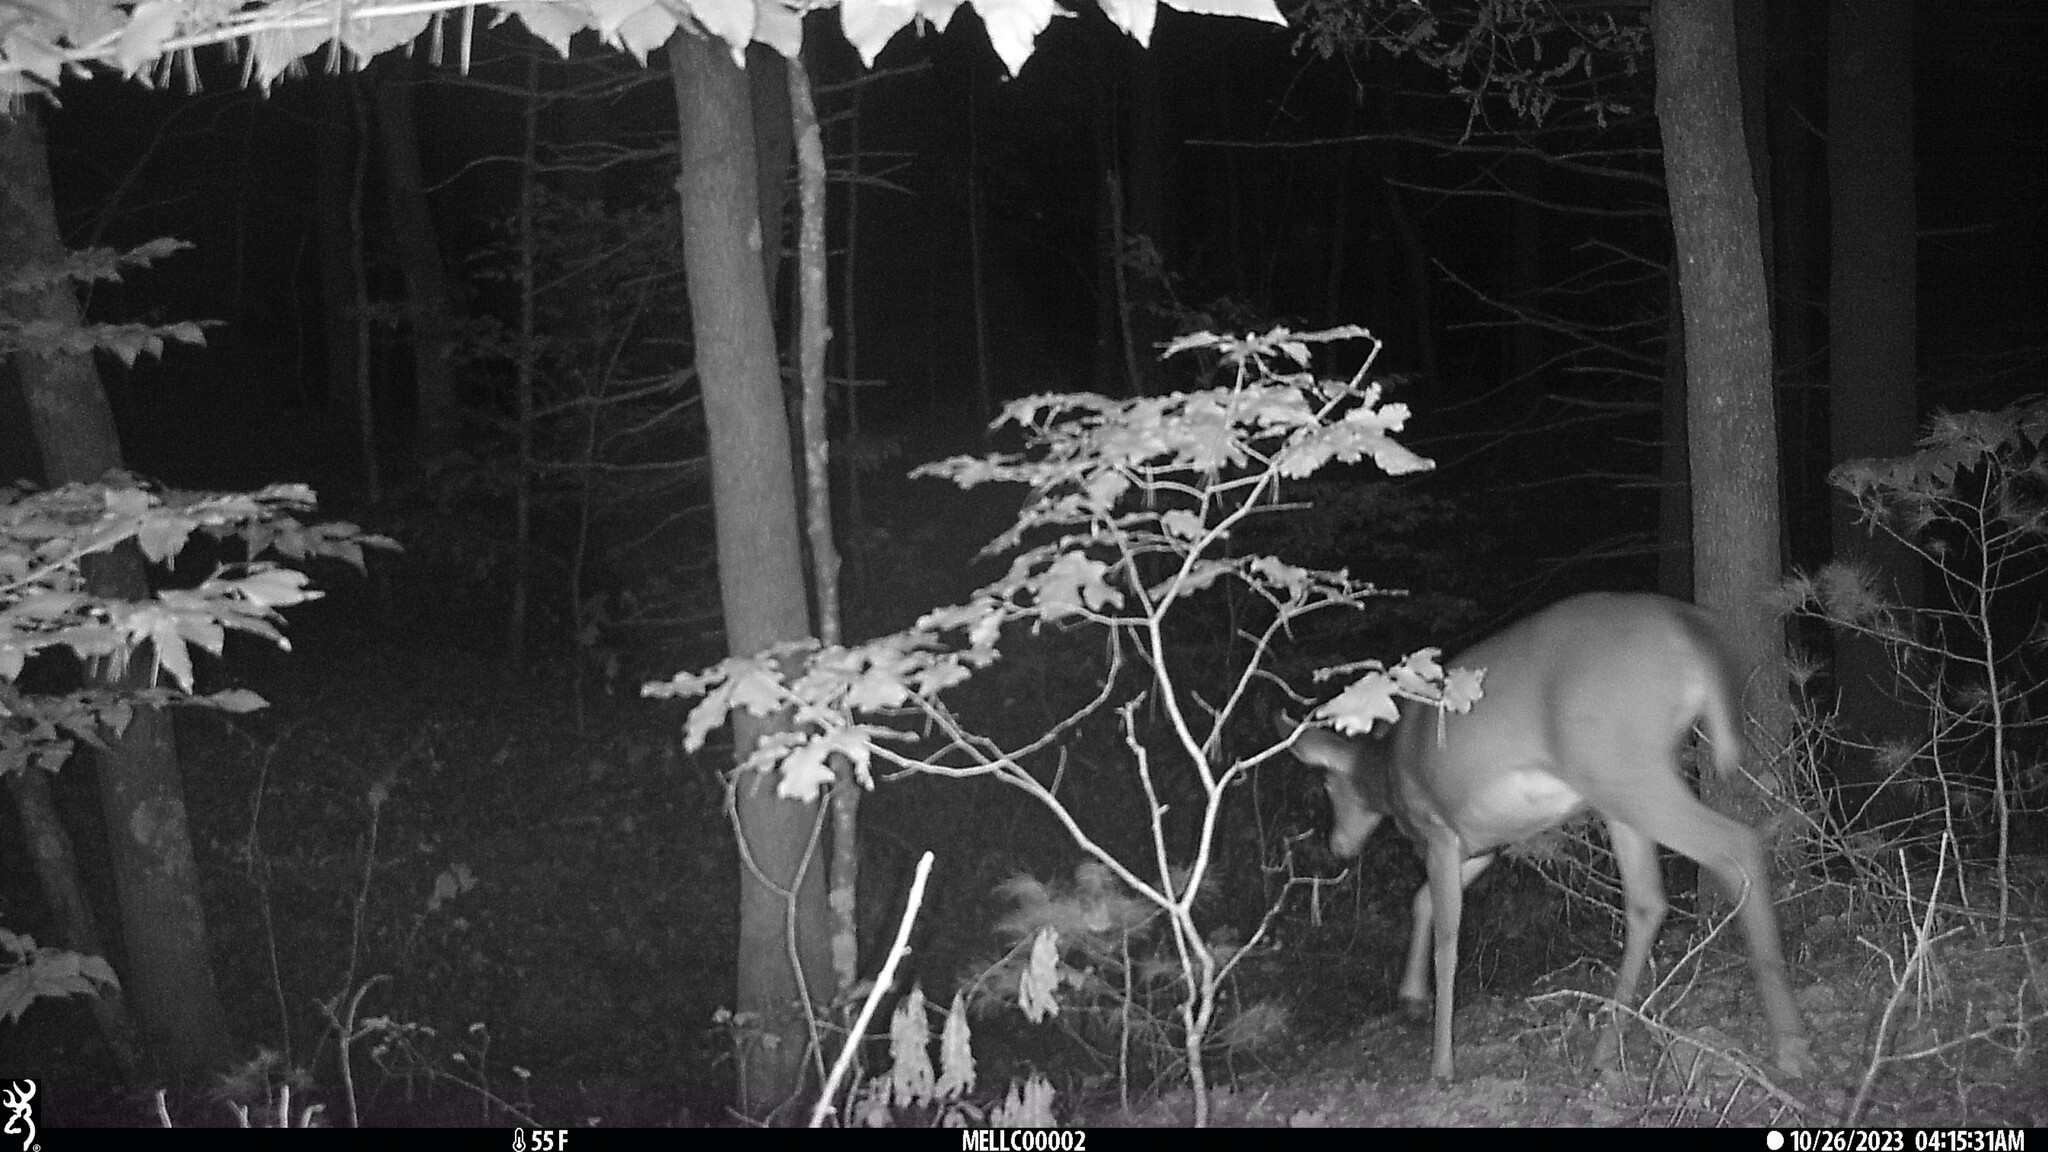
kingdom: Animalia
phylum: Chordata
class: Mammalia
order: Artiodactyla
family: Cervidae
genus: Odocoileus
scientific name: Odocoileus virginianus
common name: White-tailed deer
